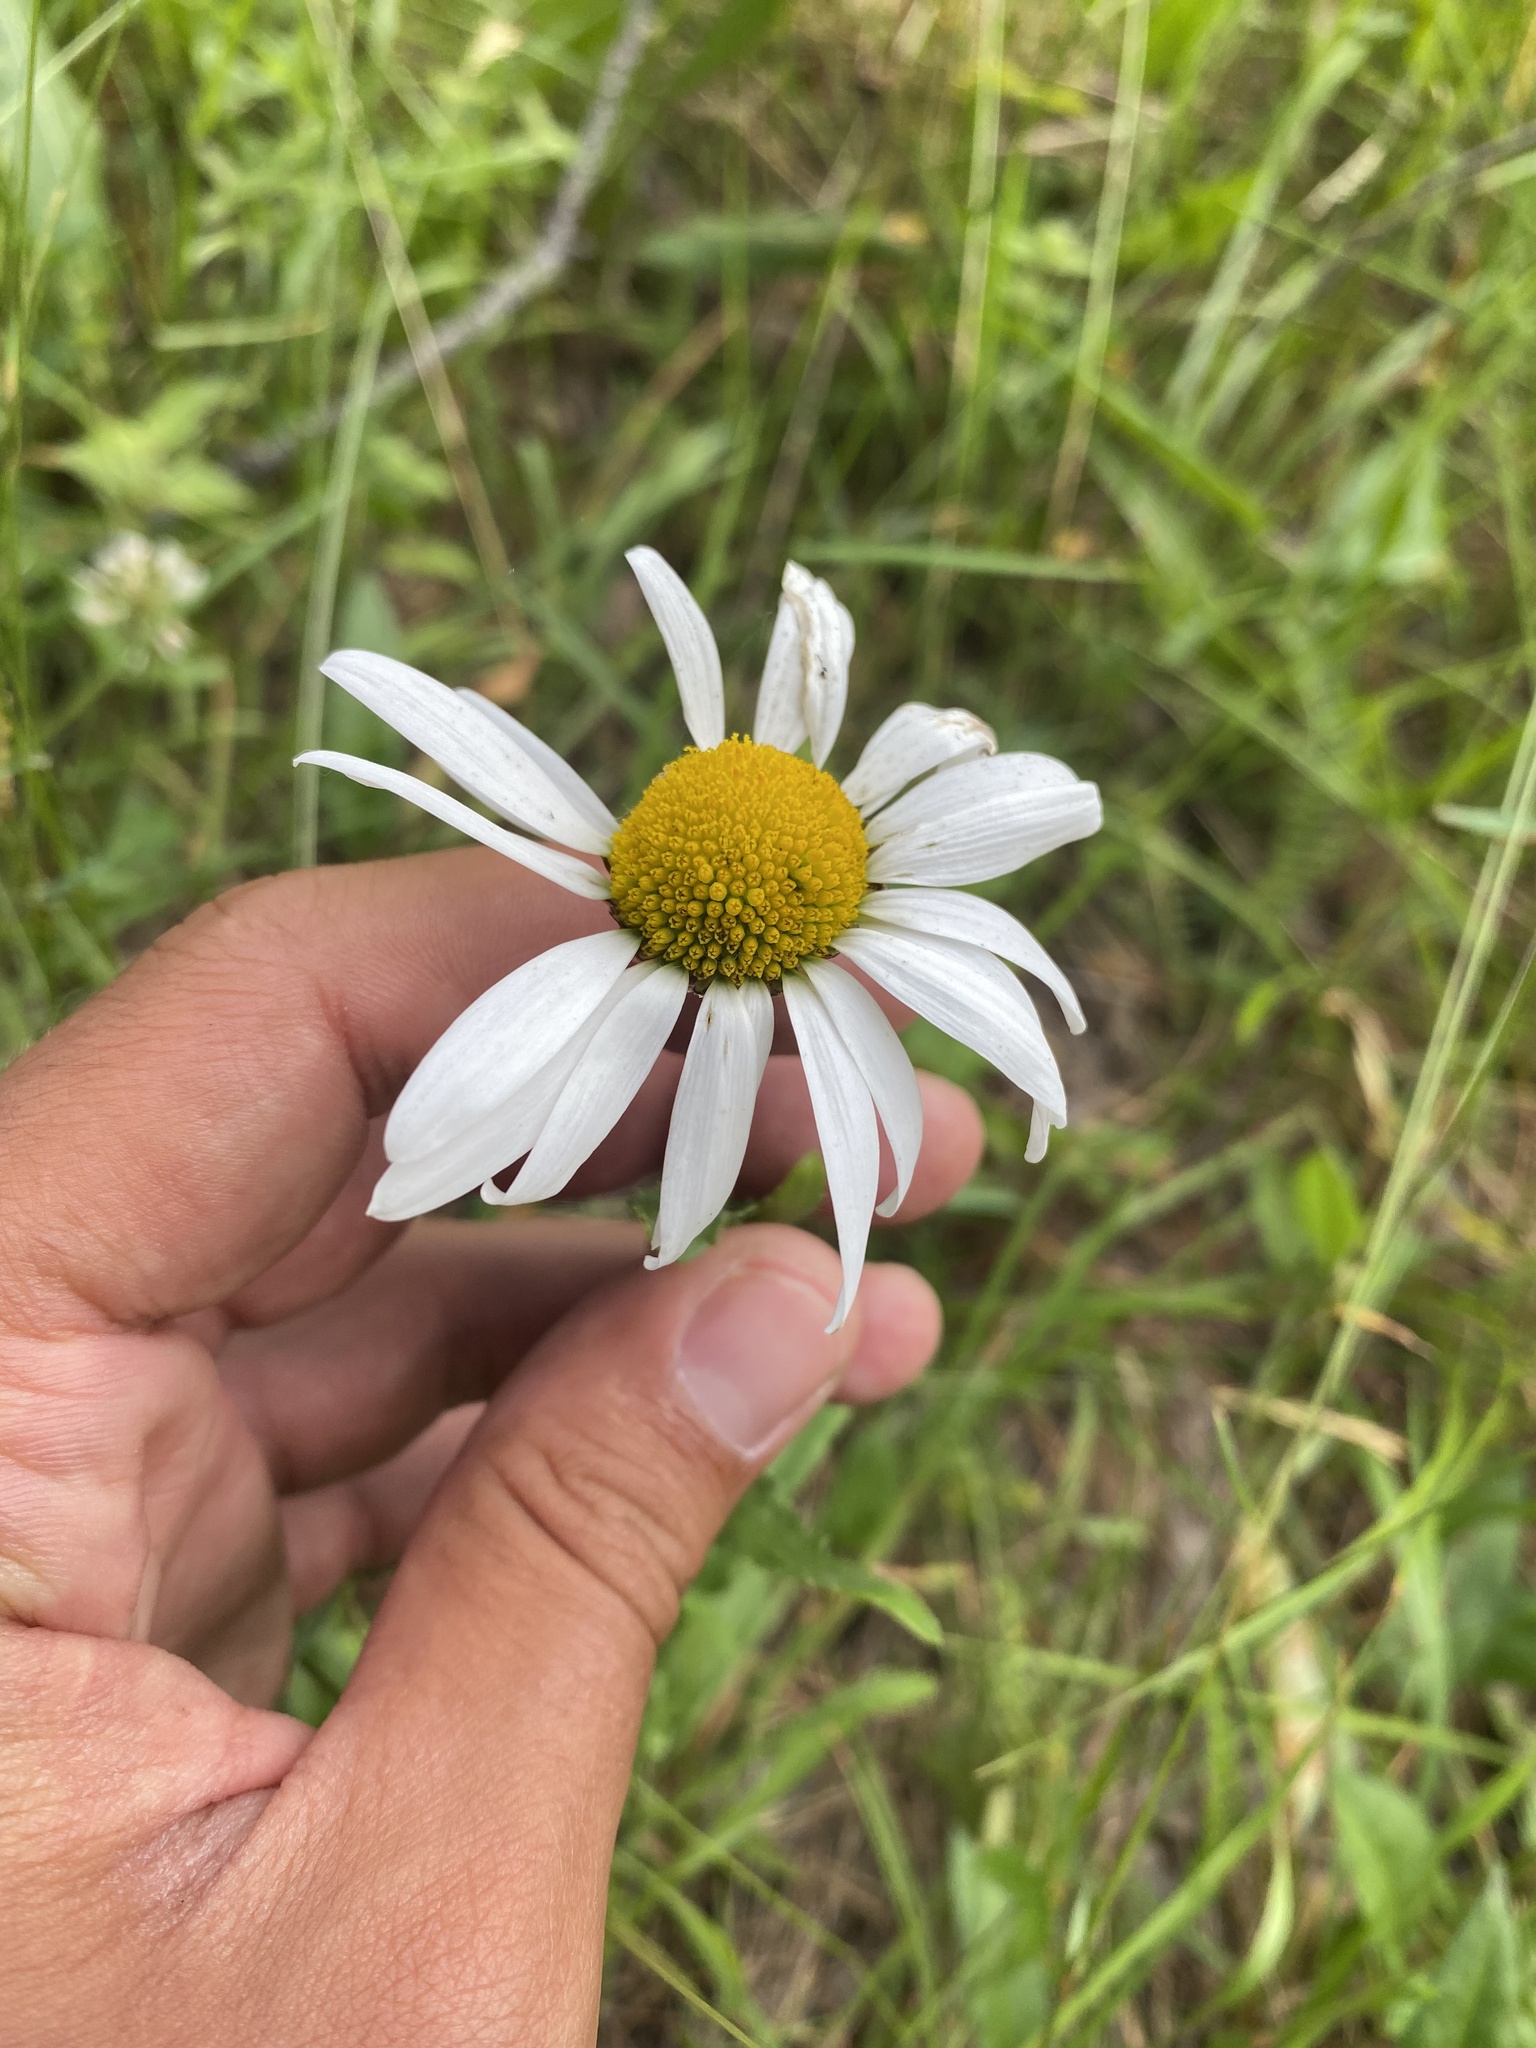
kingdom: Plantae
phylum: Tracheophyta
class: Magnoliopsida
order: Asterales
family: Asteraceae
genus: Leucanthemum
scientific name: Leucanthemum ircutianum
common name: Daisy
